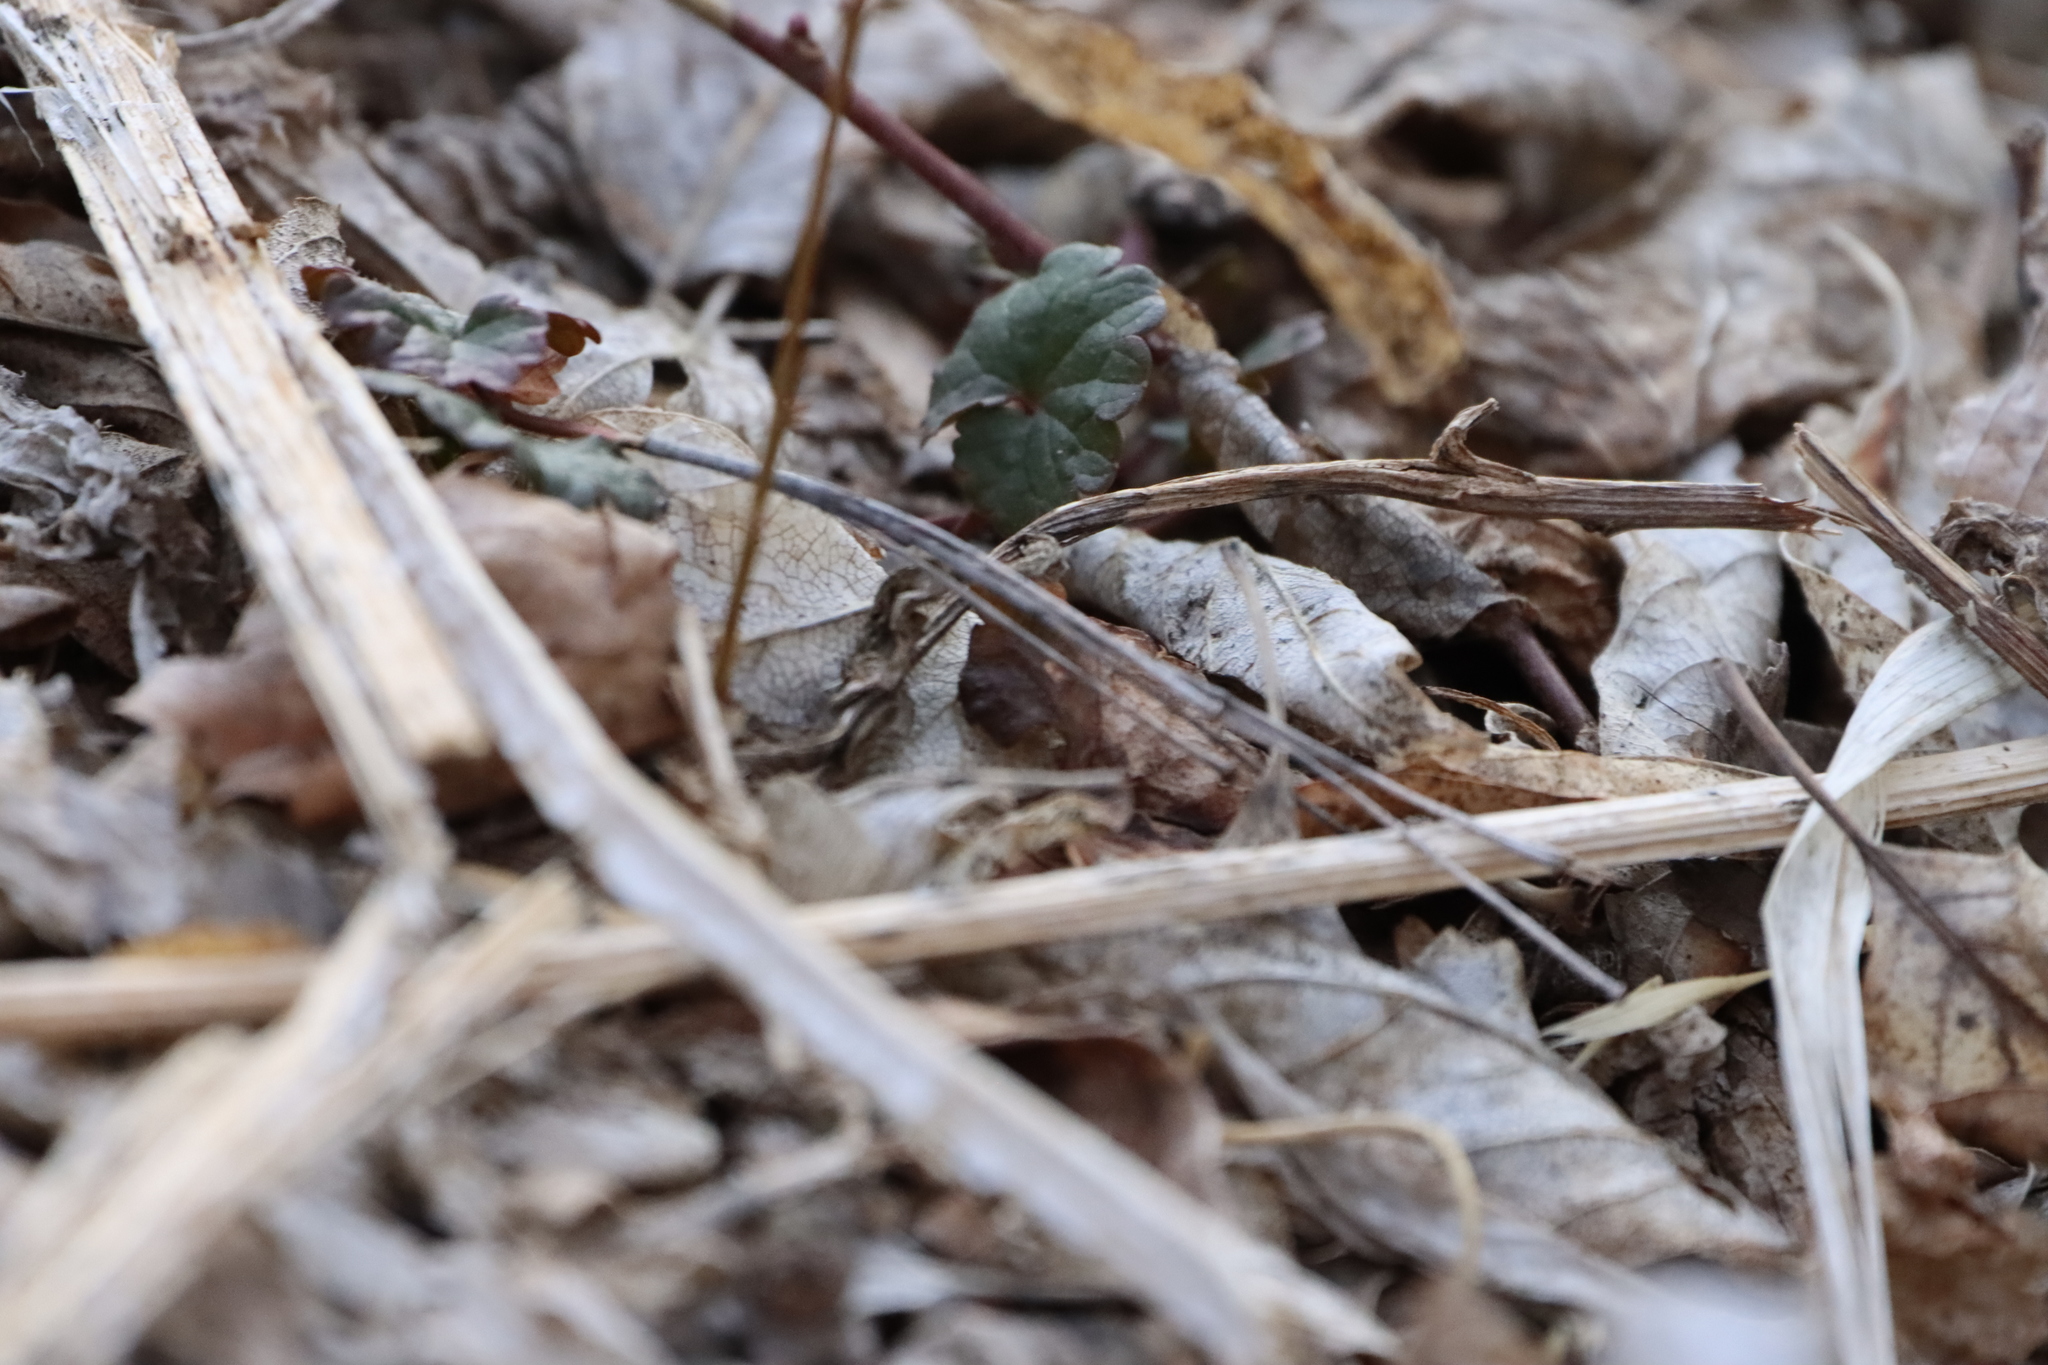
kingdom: Plantae
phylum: Tracheophyta
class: Magnoliopsida
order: Lamiales
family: Lamiaceae
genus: Glechoma
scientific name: Glechoma hederacea
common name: Ground ivy
